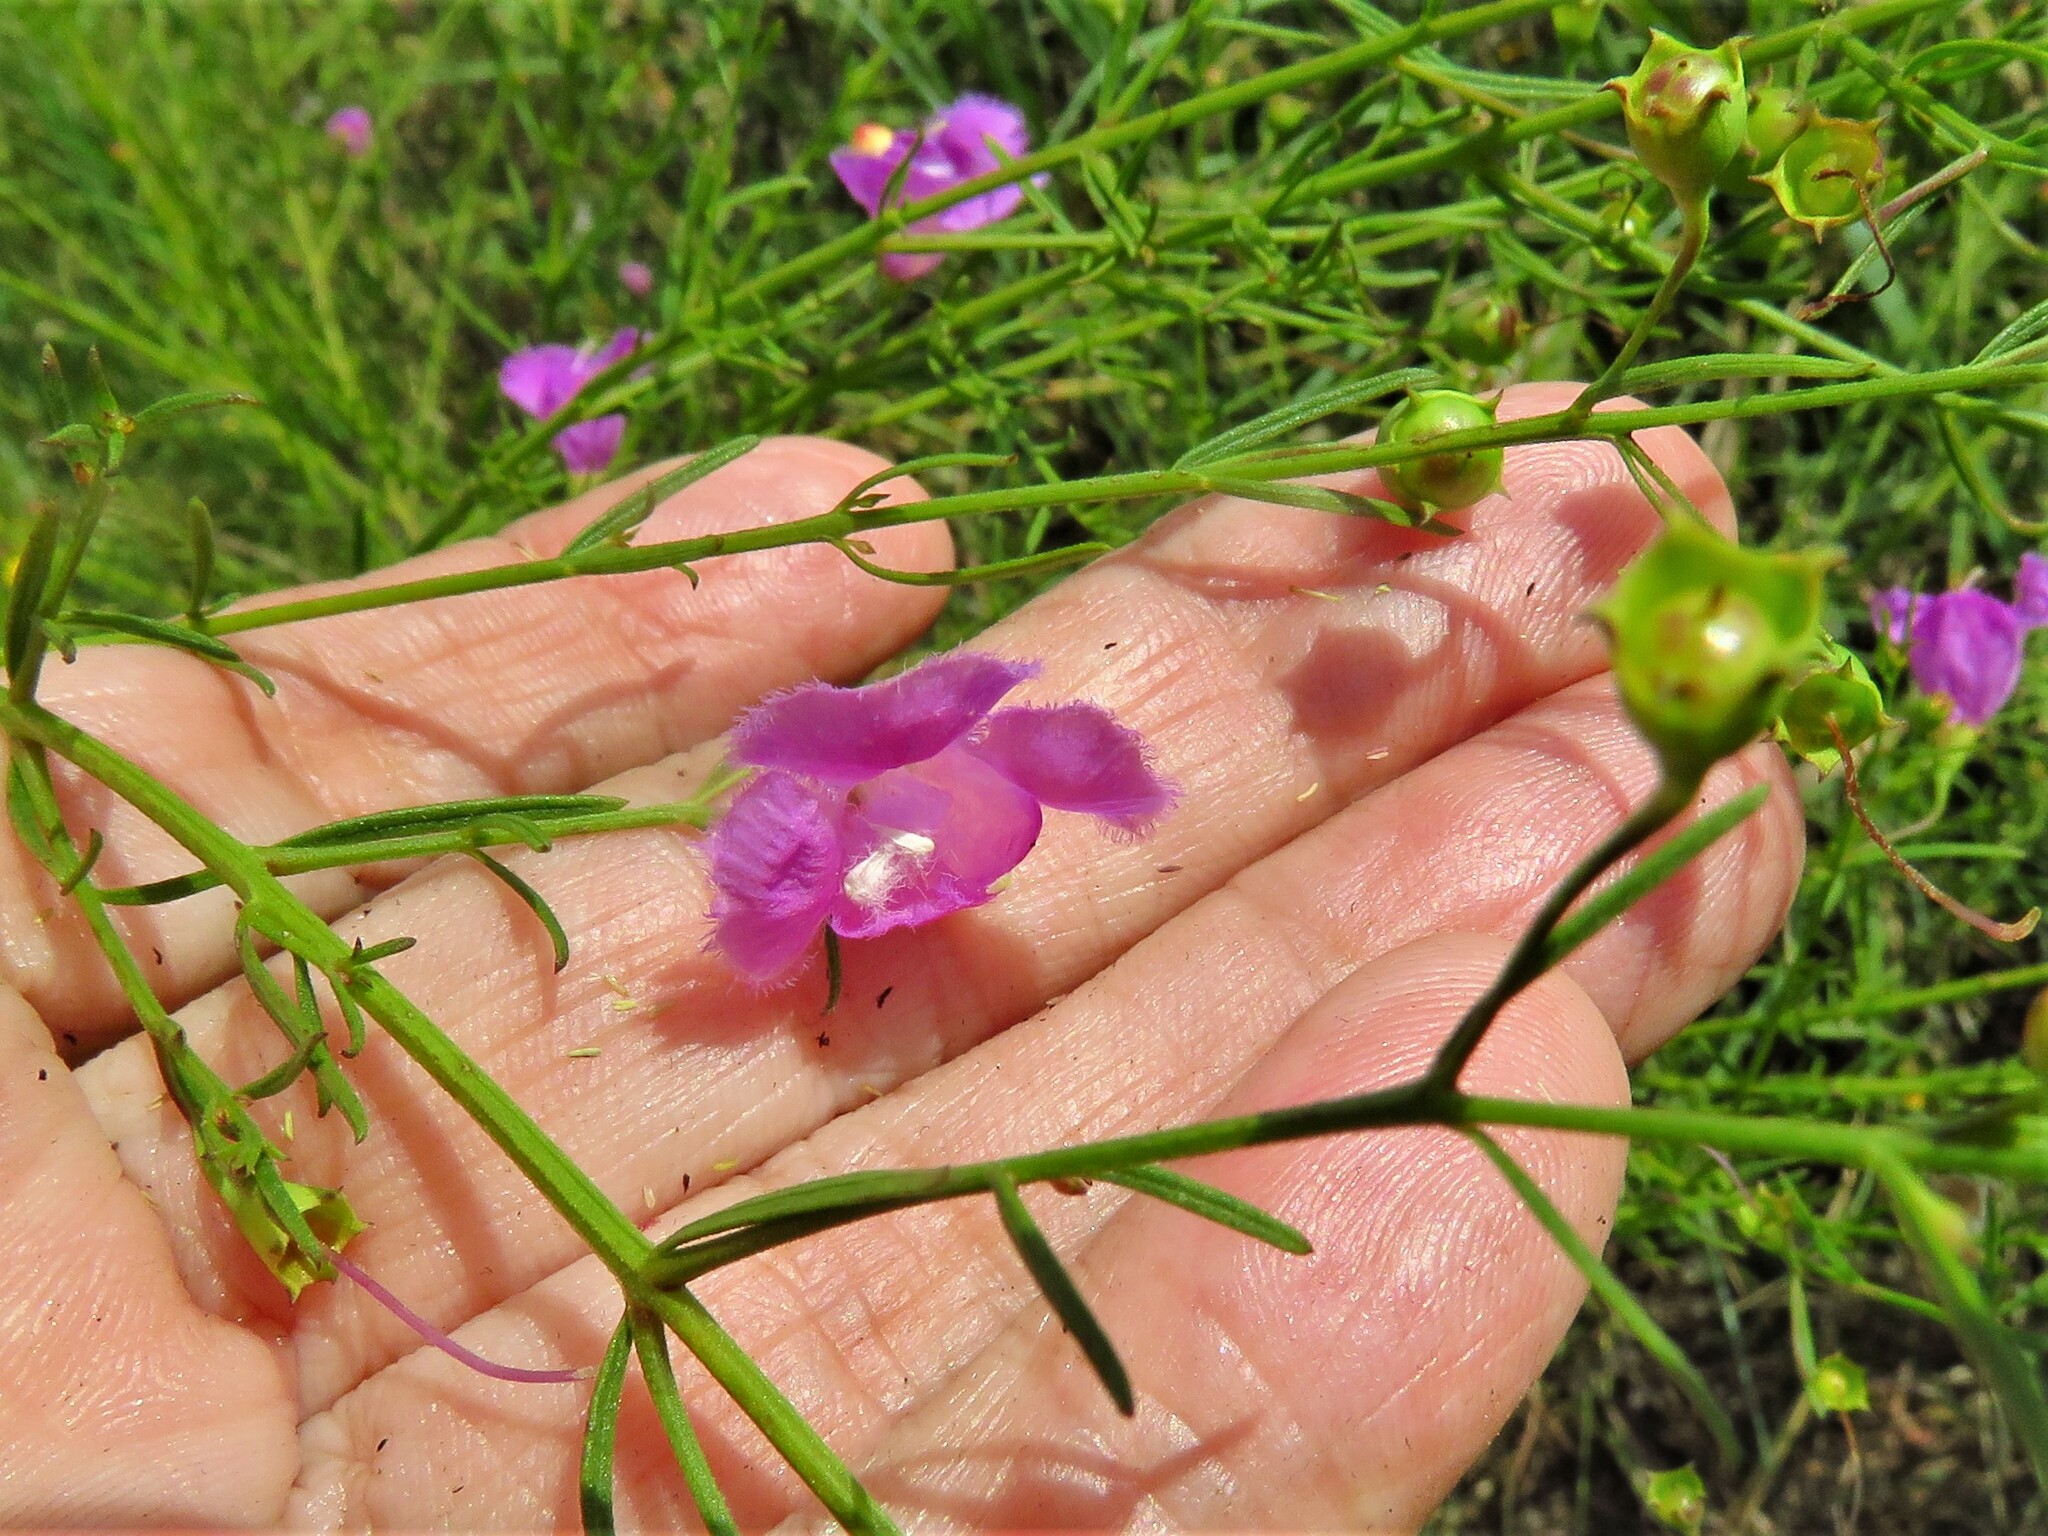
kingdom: Plantae
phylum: Tracheophyta
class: Magnoliopsida
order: Lamiales
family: Orobanchaceae
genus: Agalinis
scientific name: Agalinis tenuifolia
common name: Slender agalinis
